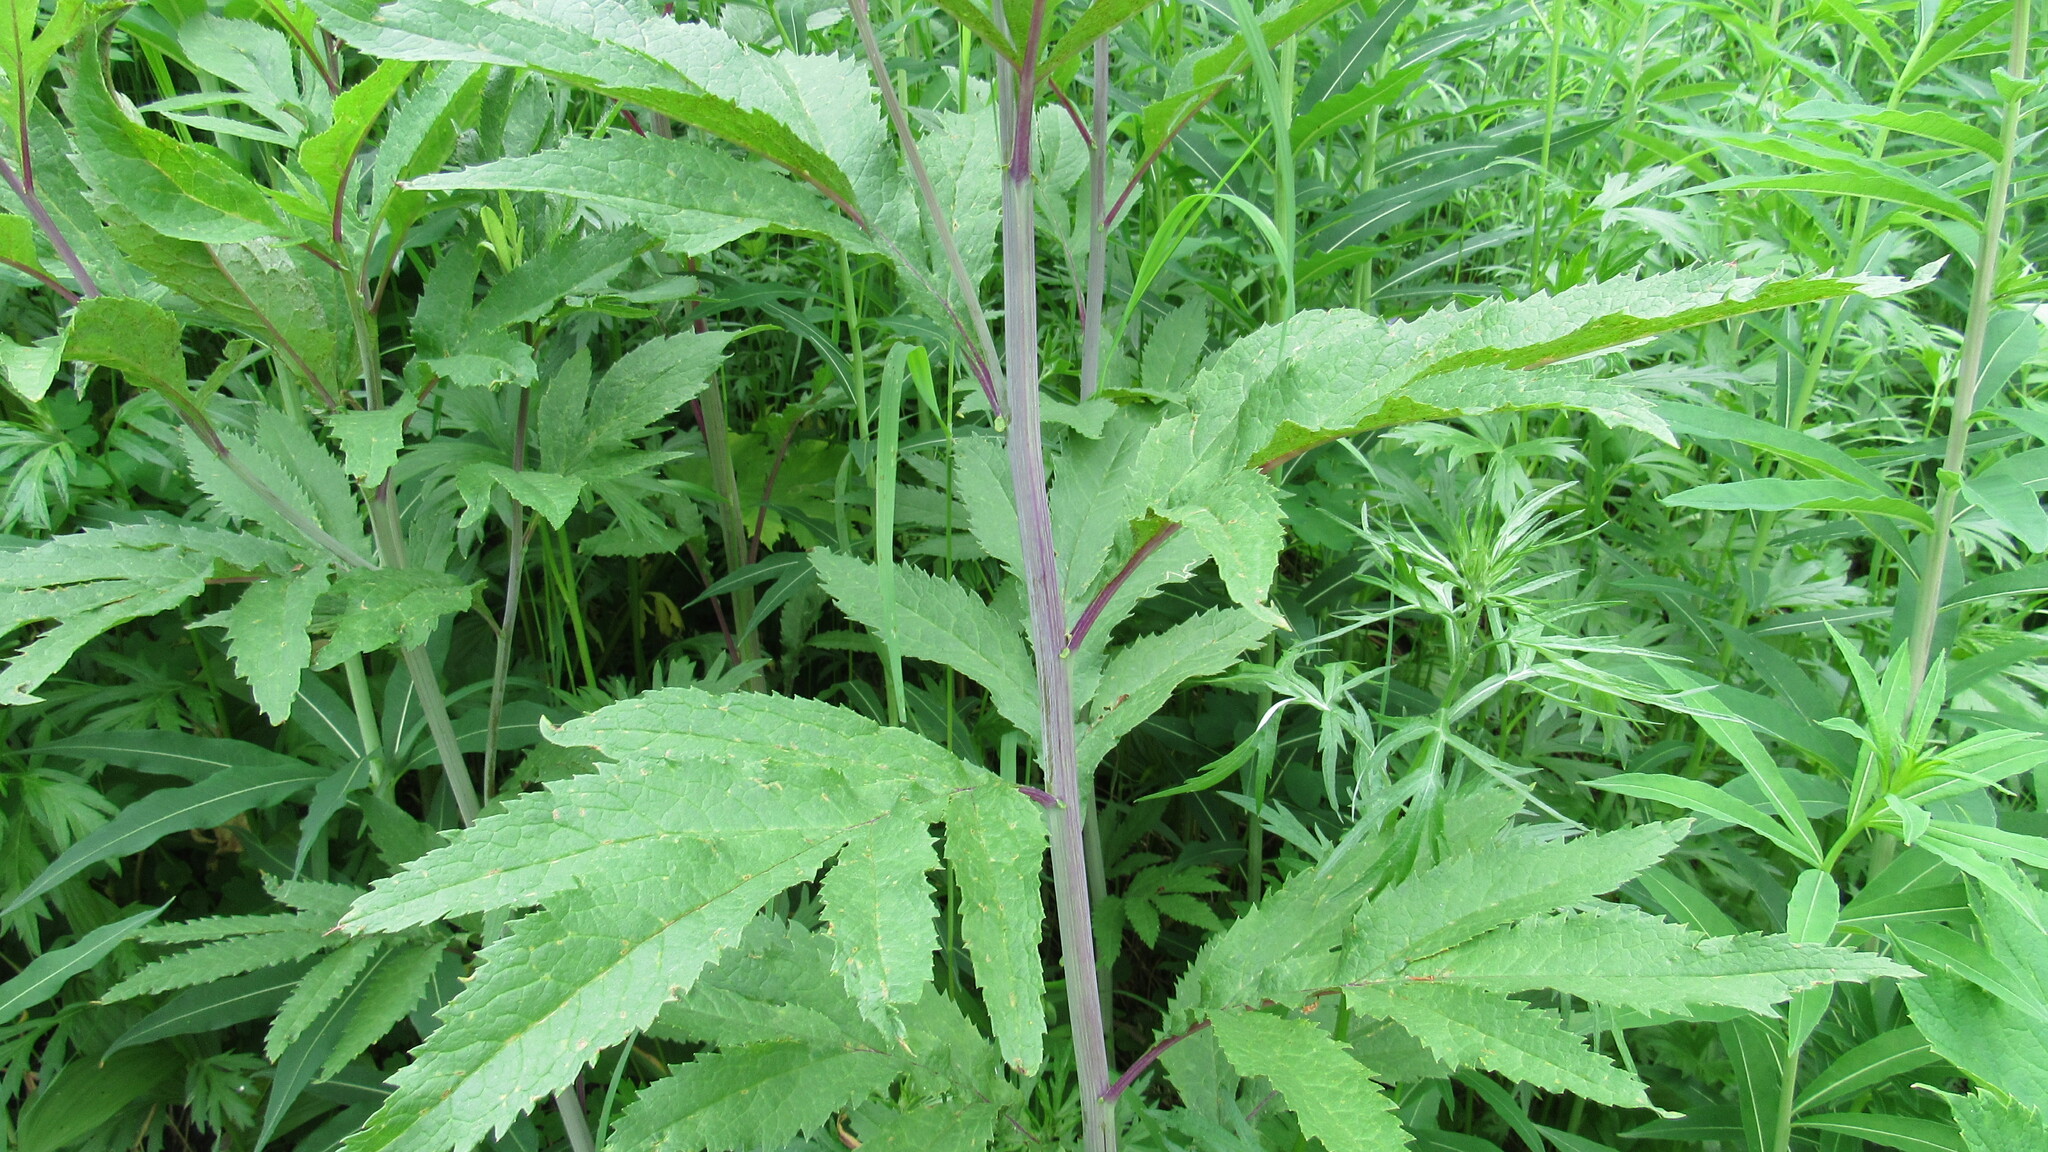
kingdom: Plantae
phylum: Tracheophyta
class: Magnoliopsida
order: Asterales
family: Asteraceae
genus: Jacobaea
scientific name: Jacobaea cannabifolia
